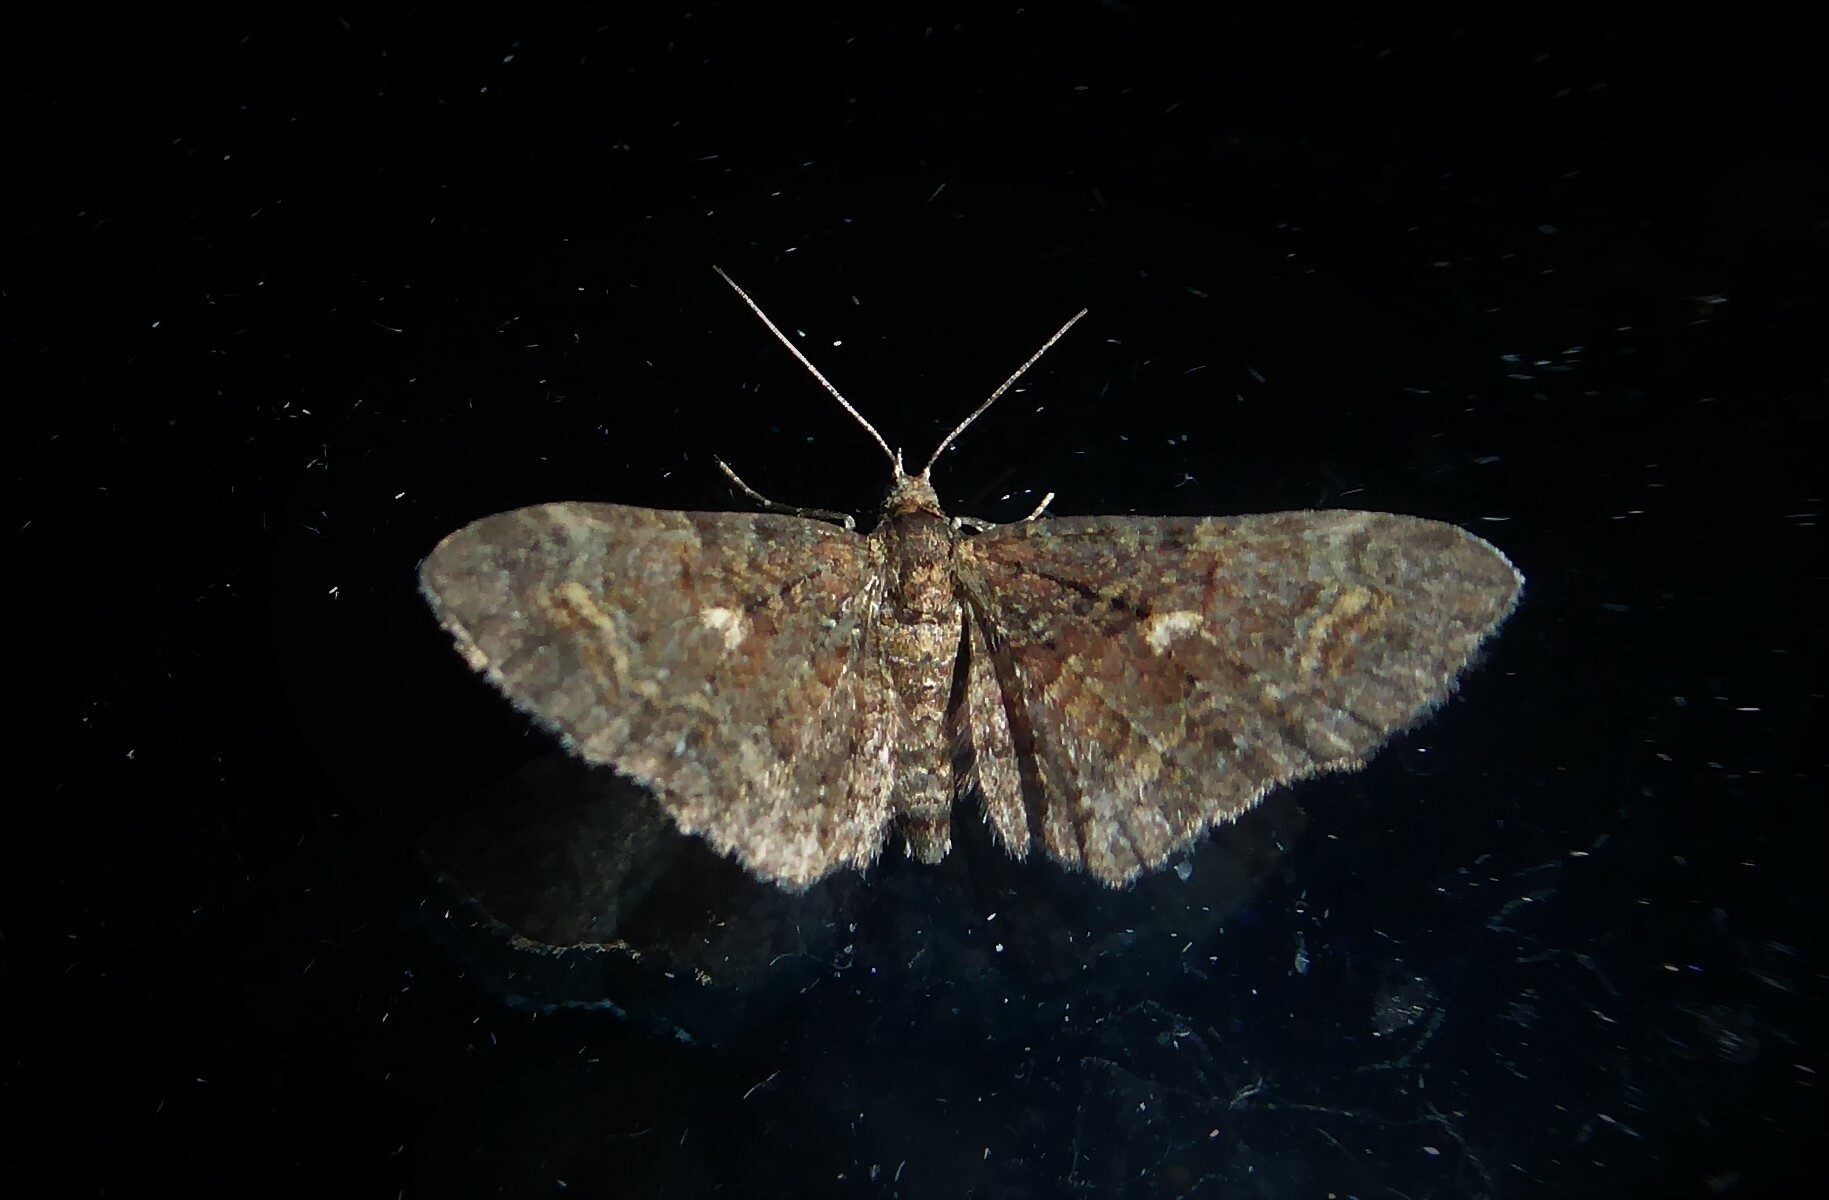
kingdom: Animalia
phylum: Arthropoda
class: Insecta
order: Lepidoptera
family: Geometridae
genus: Pasiphila
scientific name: Pasiphila lunata
